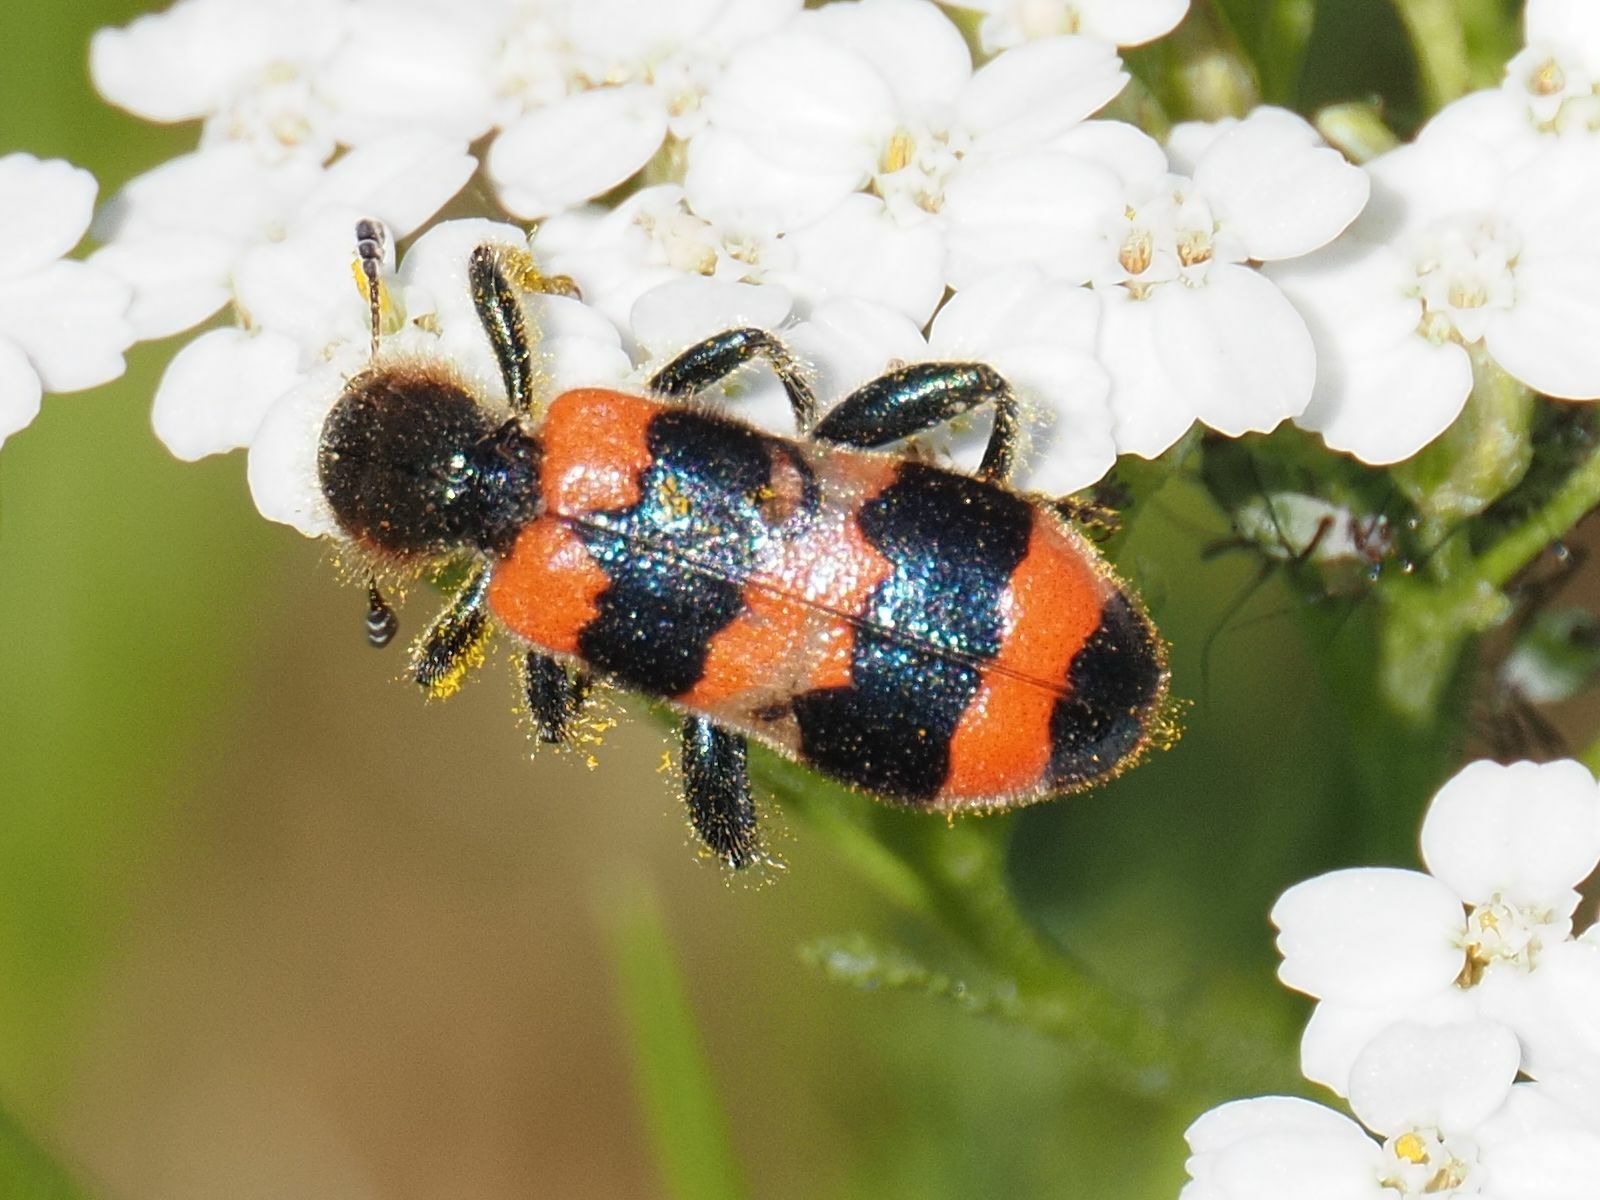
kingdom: Animalia
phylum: Arthropoda
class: Insecta
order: Coleoptera
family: Cleridae
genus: Trichodes
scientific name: Trichodes apiarius
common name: Bee-eating beetle
